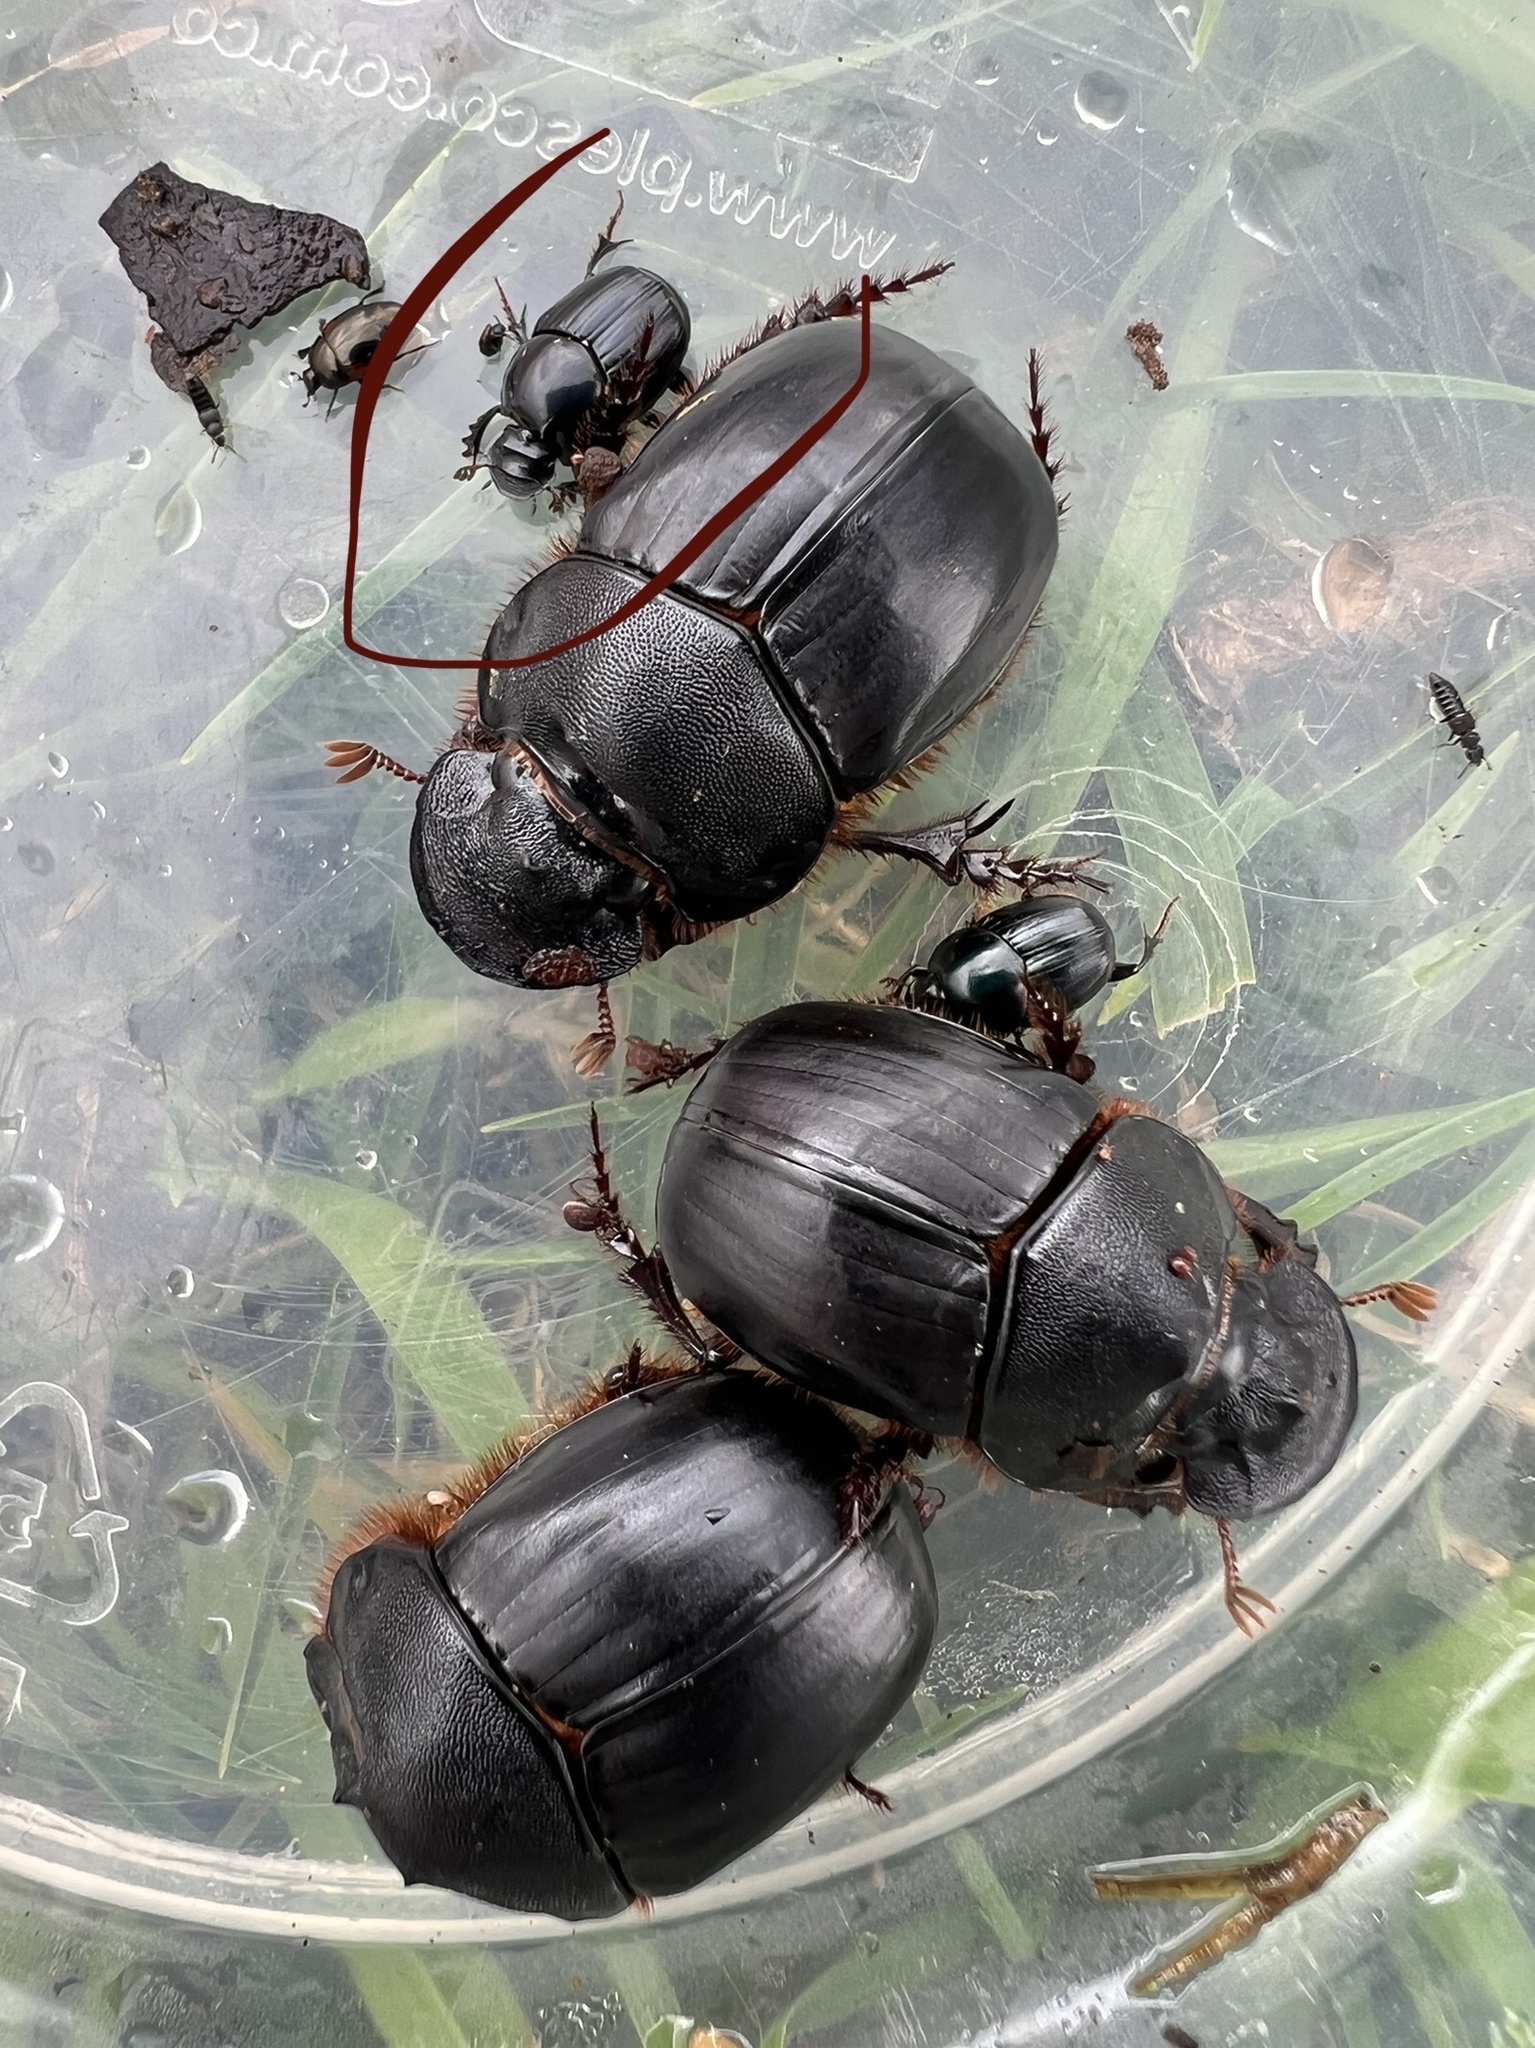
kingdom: Animalia
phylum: Arthropoda
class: Insecta
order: Coleoptera
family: Scarabaeidae
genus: Onthophagus
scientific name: Onthophagus curvicornis
